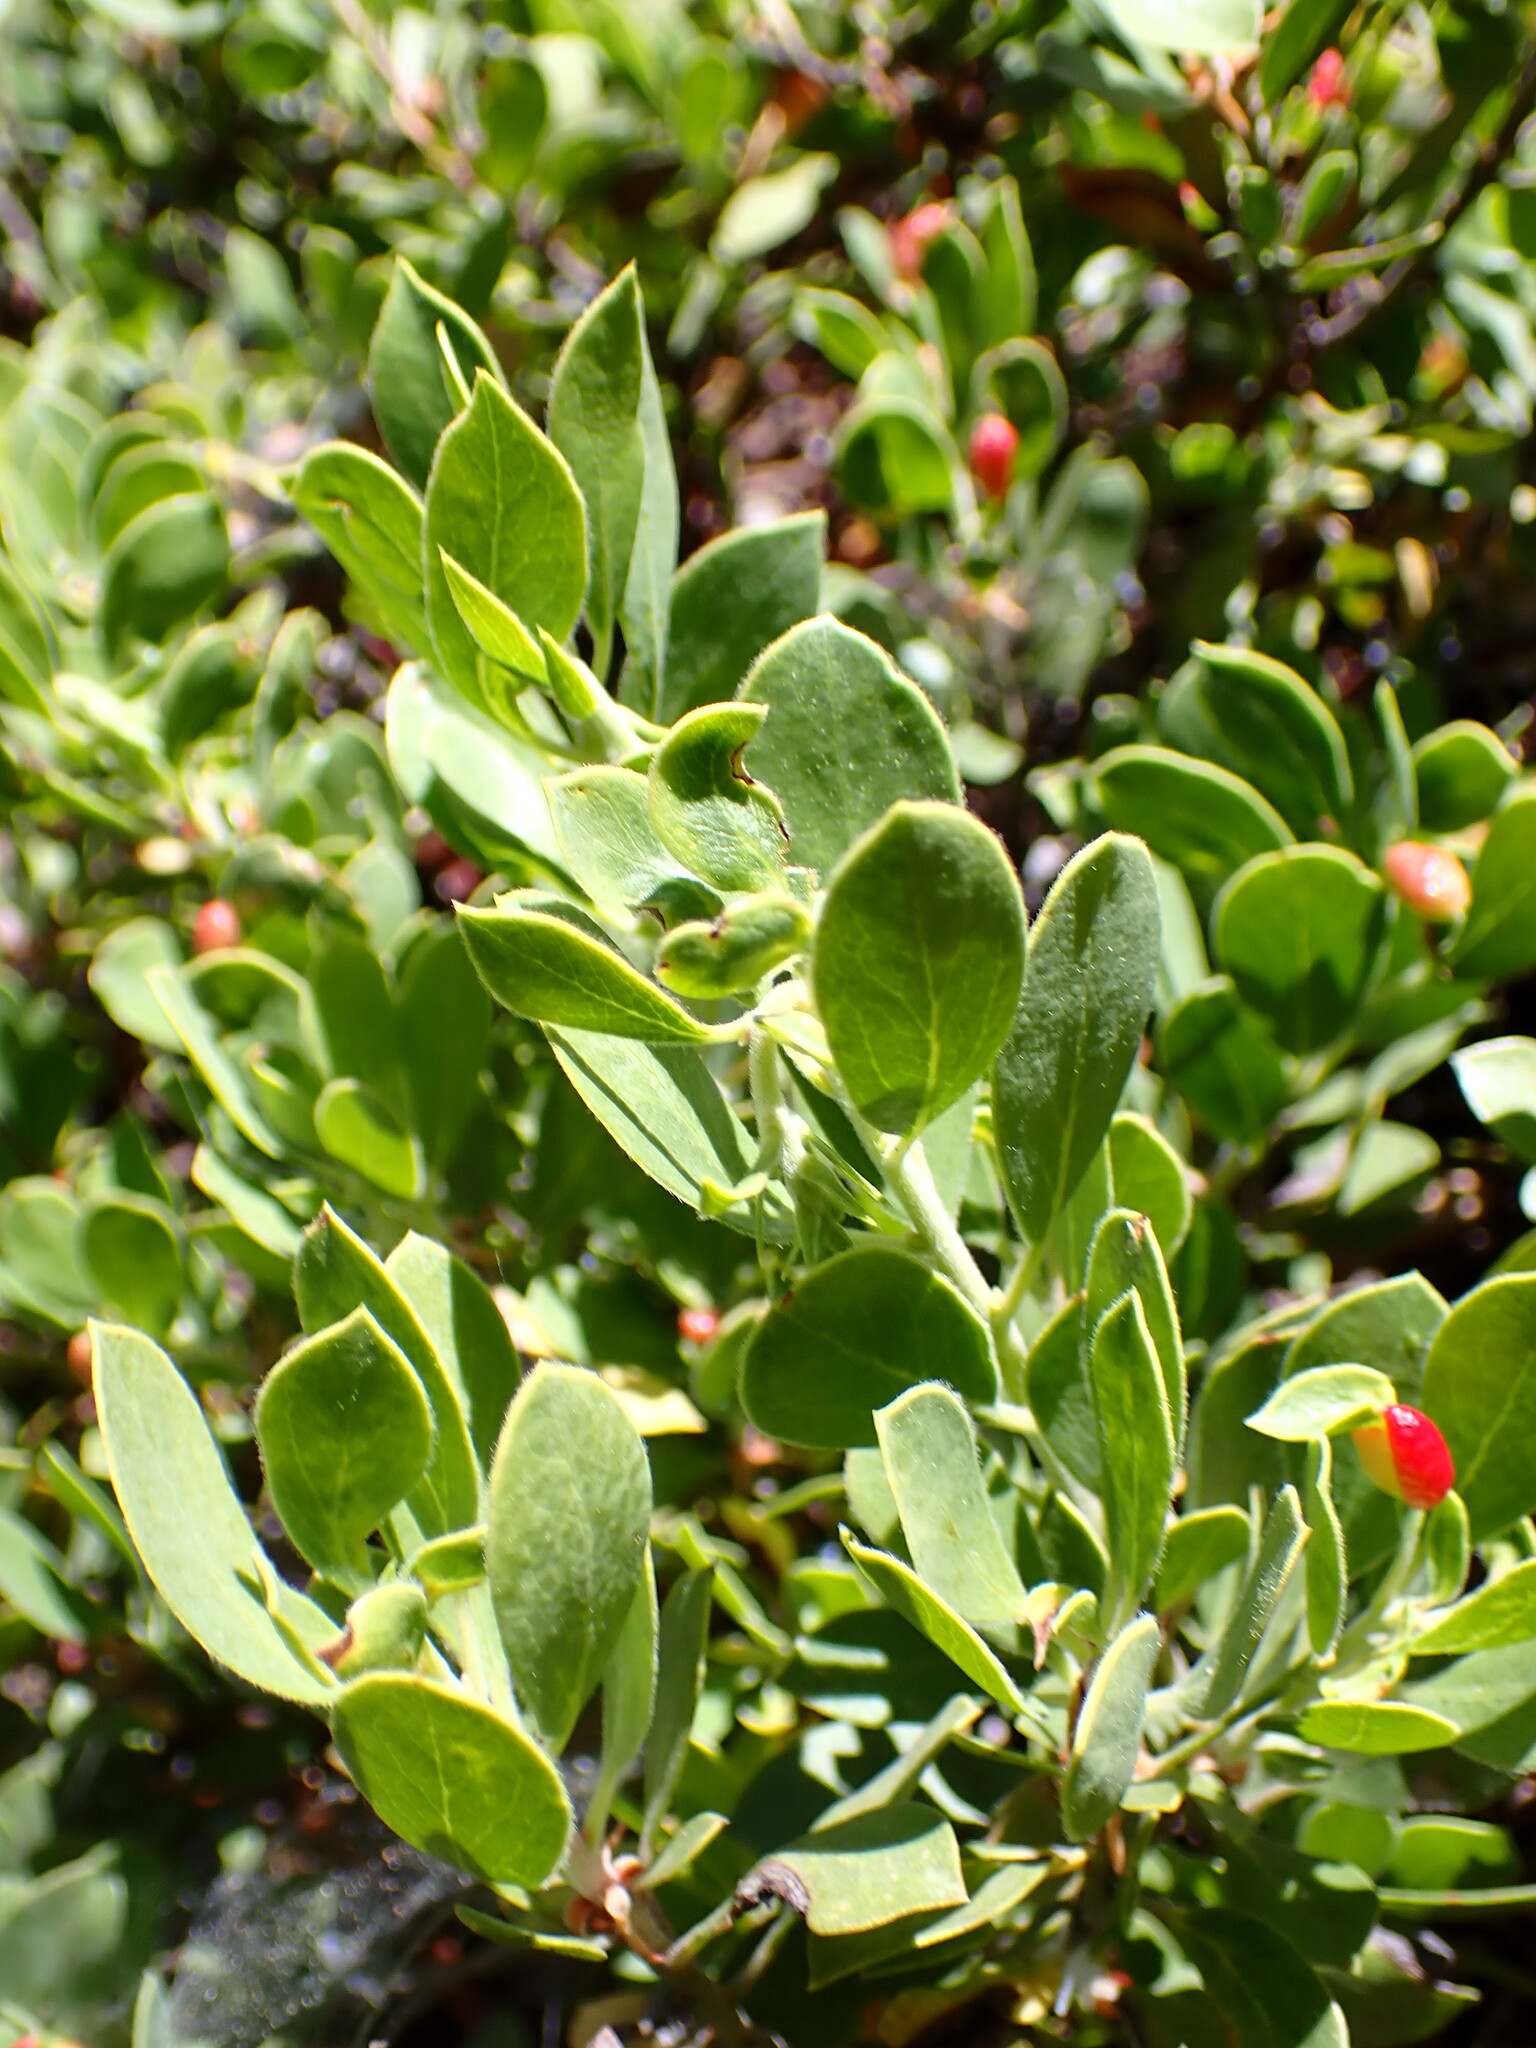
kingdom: Plantae
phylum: Tracheophyta
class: Magnoliopsida
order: Ericales
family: Ericaceae
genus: Arctostaphylos
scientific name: Arctostaphylos nevadensis
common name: Pinemat manzanita
